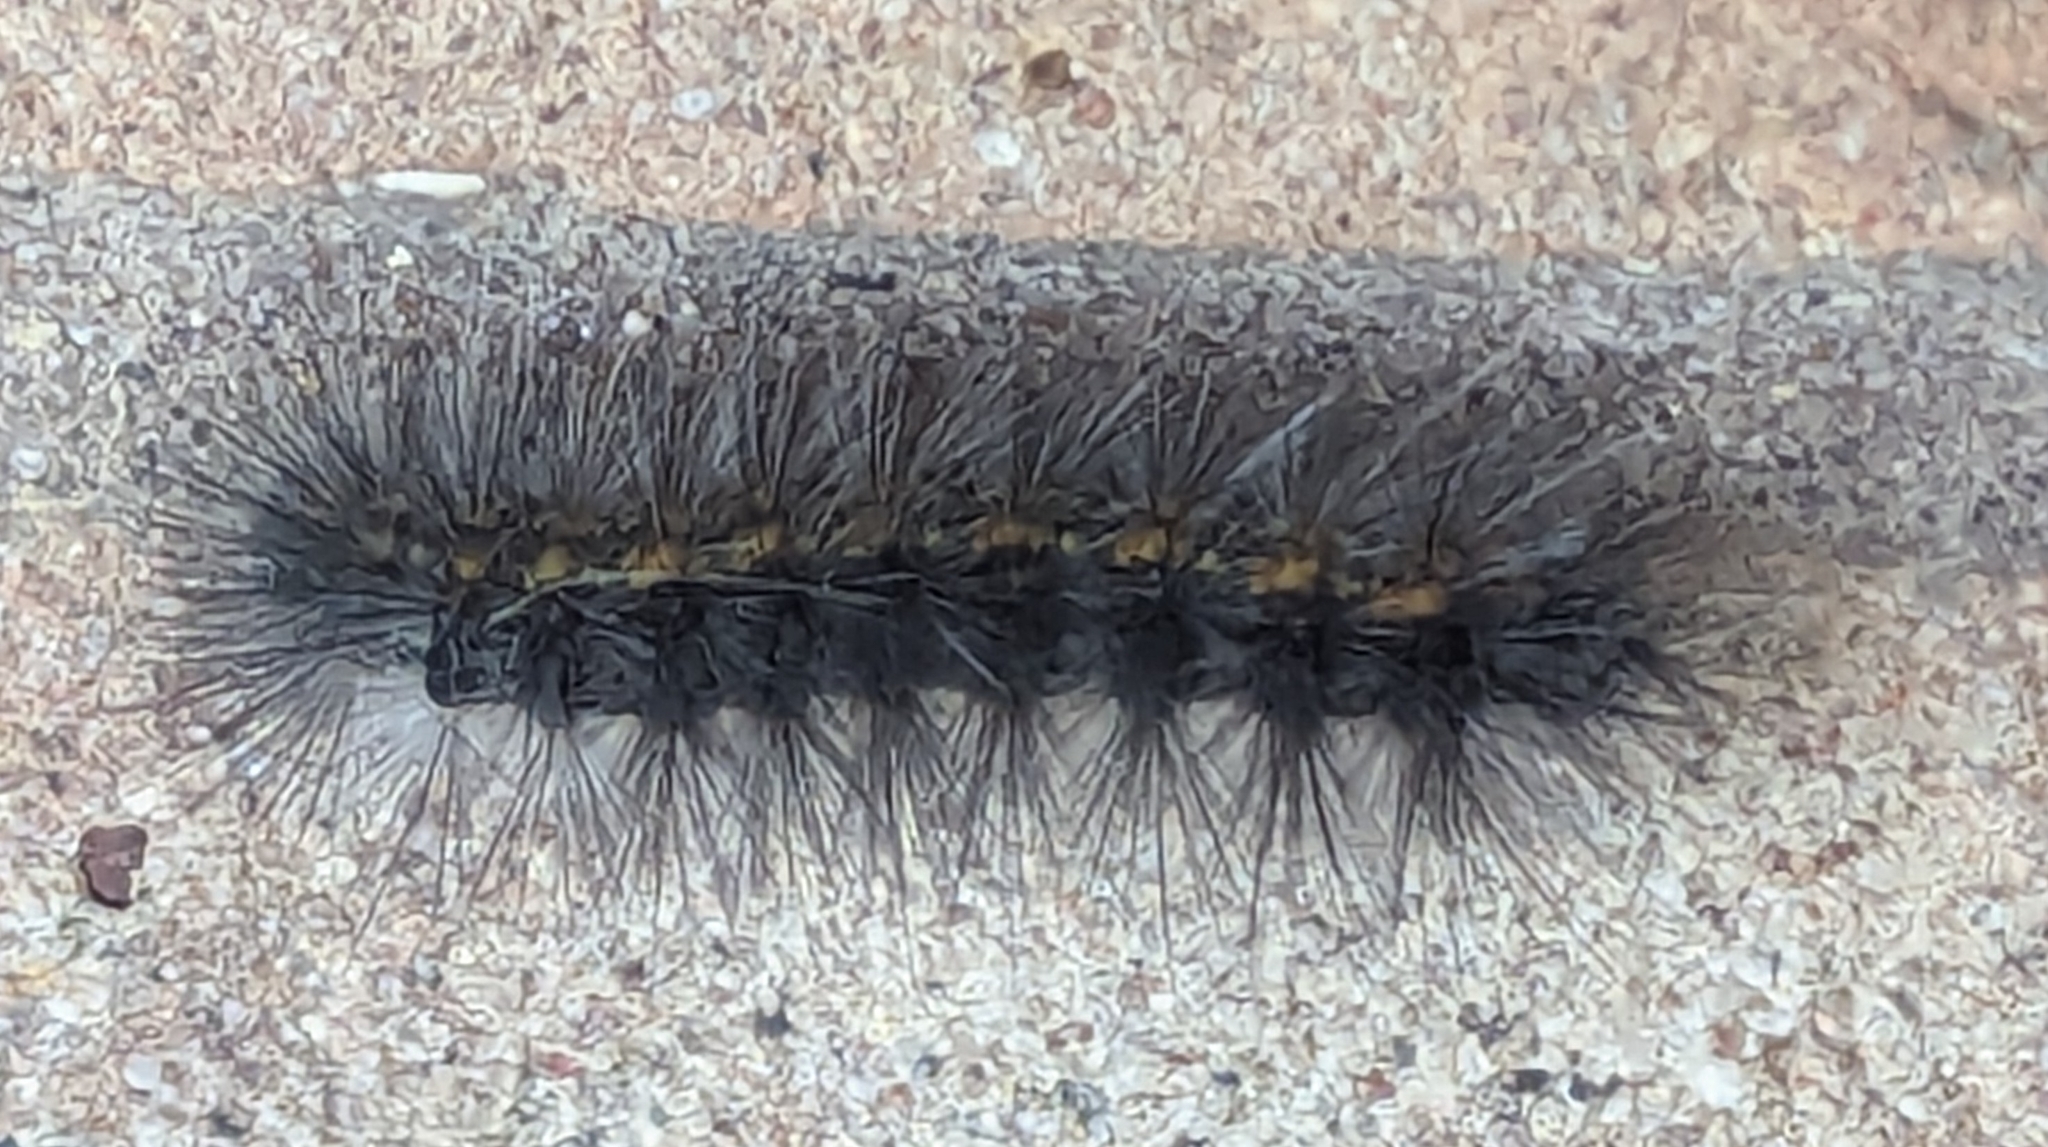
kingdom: Animalia
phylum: Arthropoda
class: Insecta
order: Lepidoptera
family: Erebidae
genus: Estigmene
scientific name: Estigmene acrea
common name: Salt marsh moth
